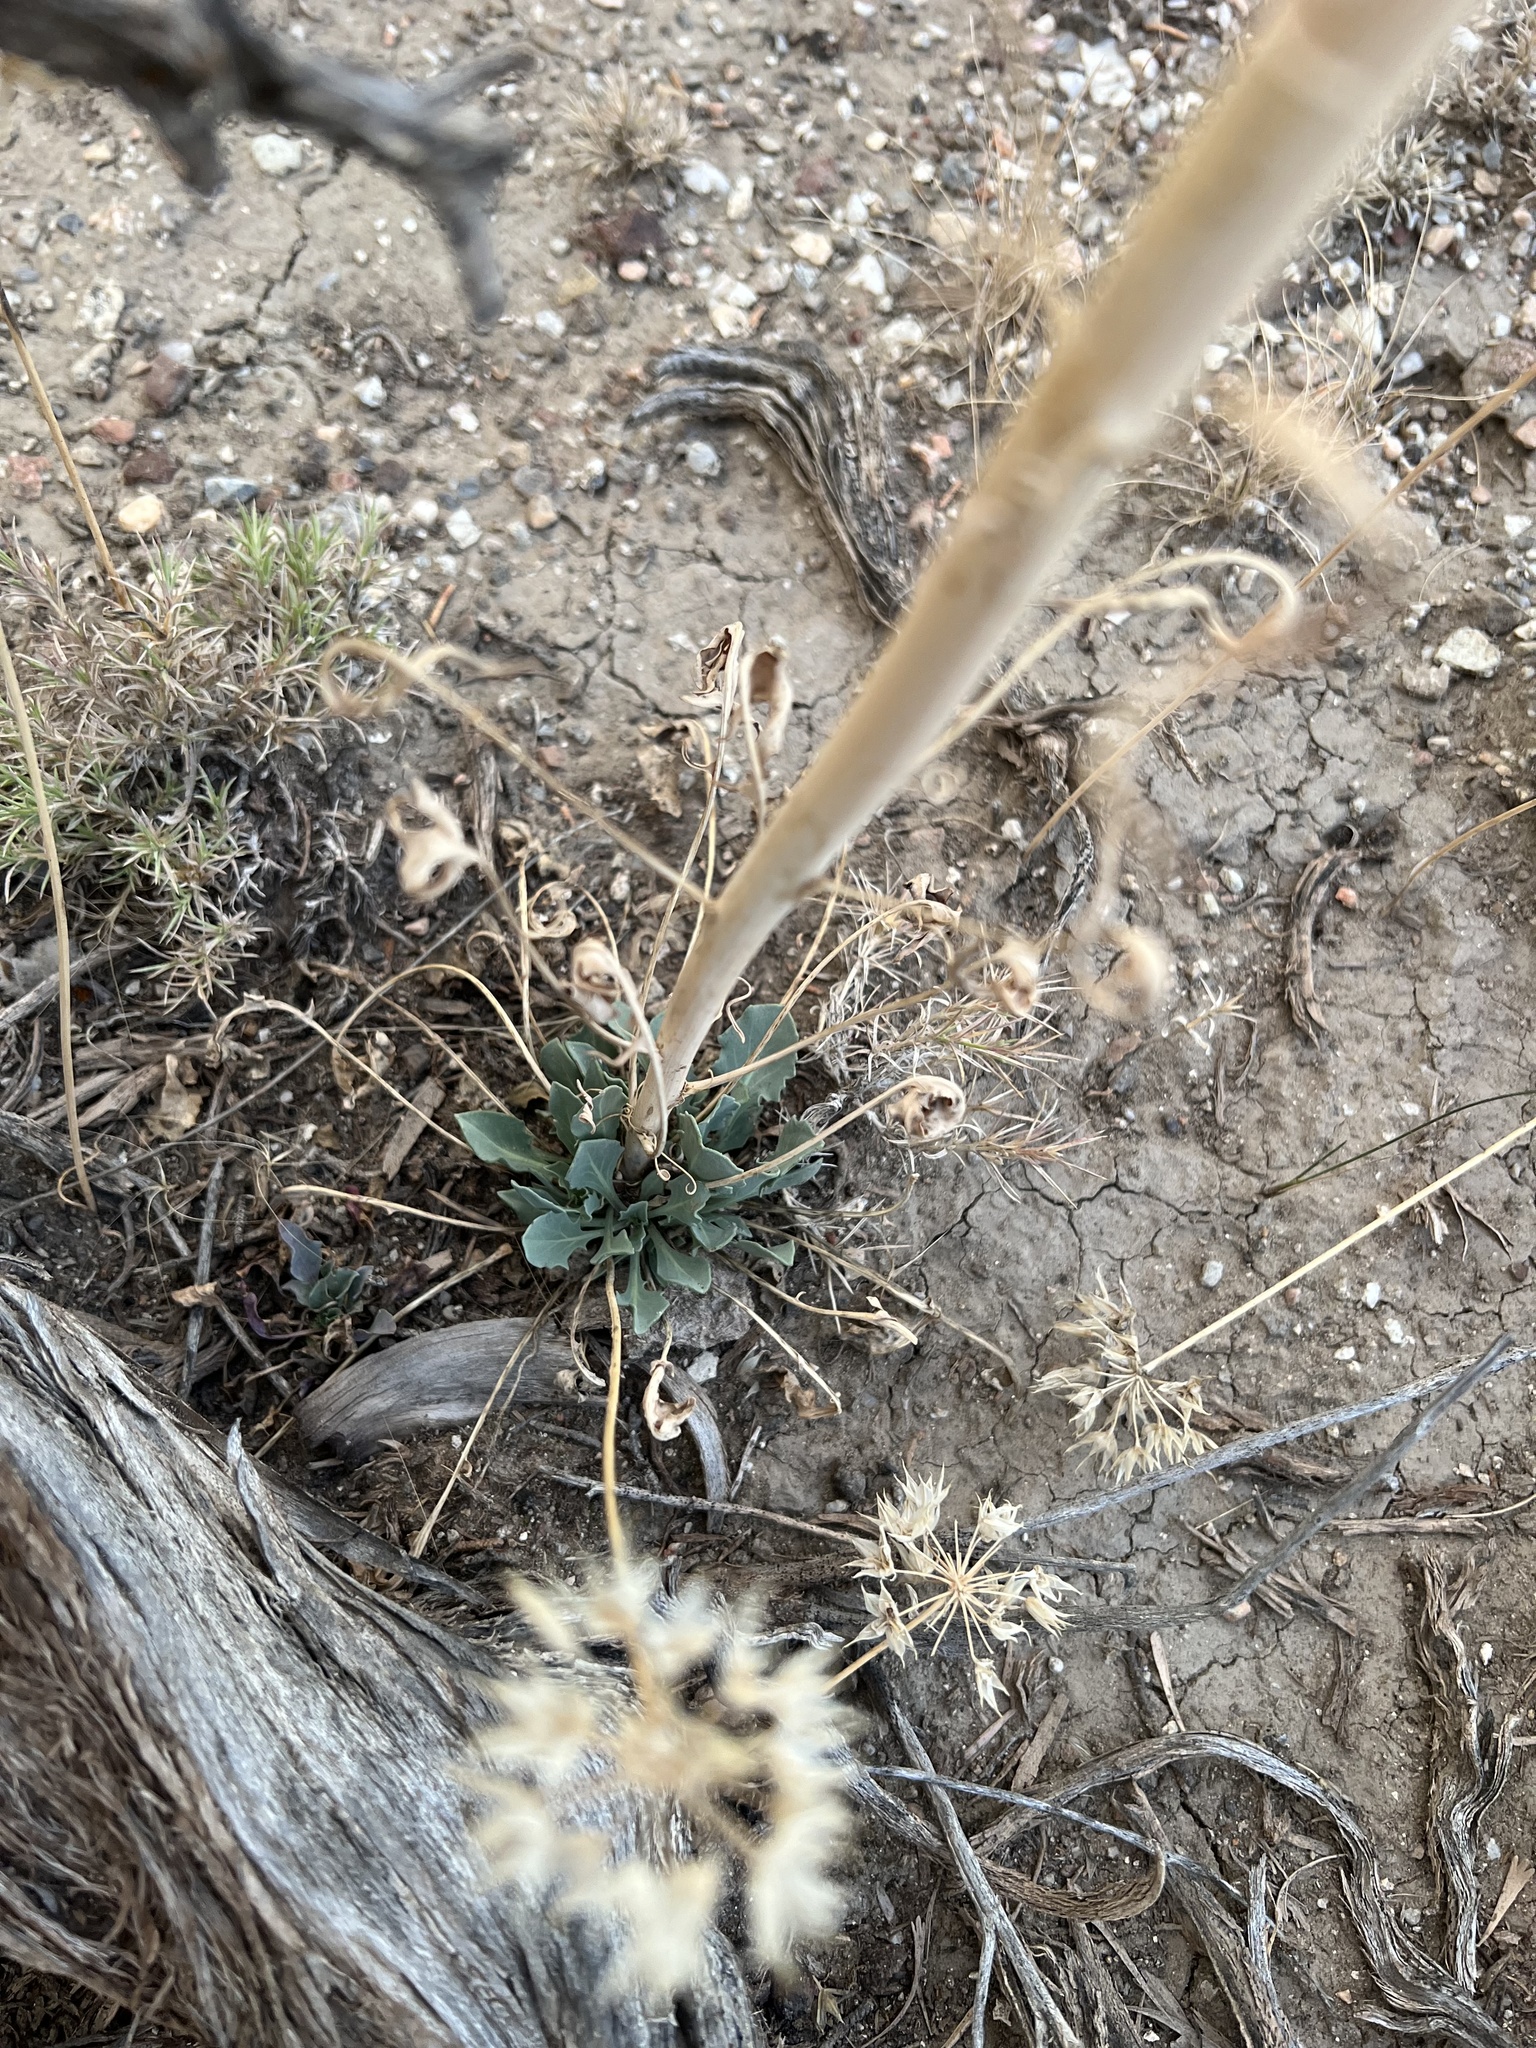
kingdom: Plantae
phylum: Tracheophyta
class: Magnoliopsida
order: Brassicales
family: Brassicaceae
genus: Streptanthus
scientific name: Streptanthus crassicaulis
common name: Thick-stem wild cabbage
